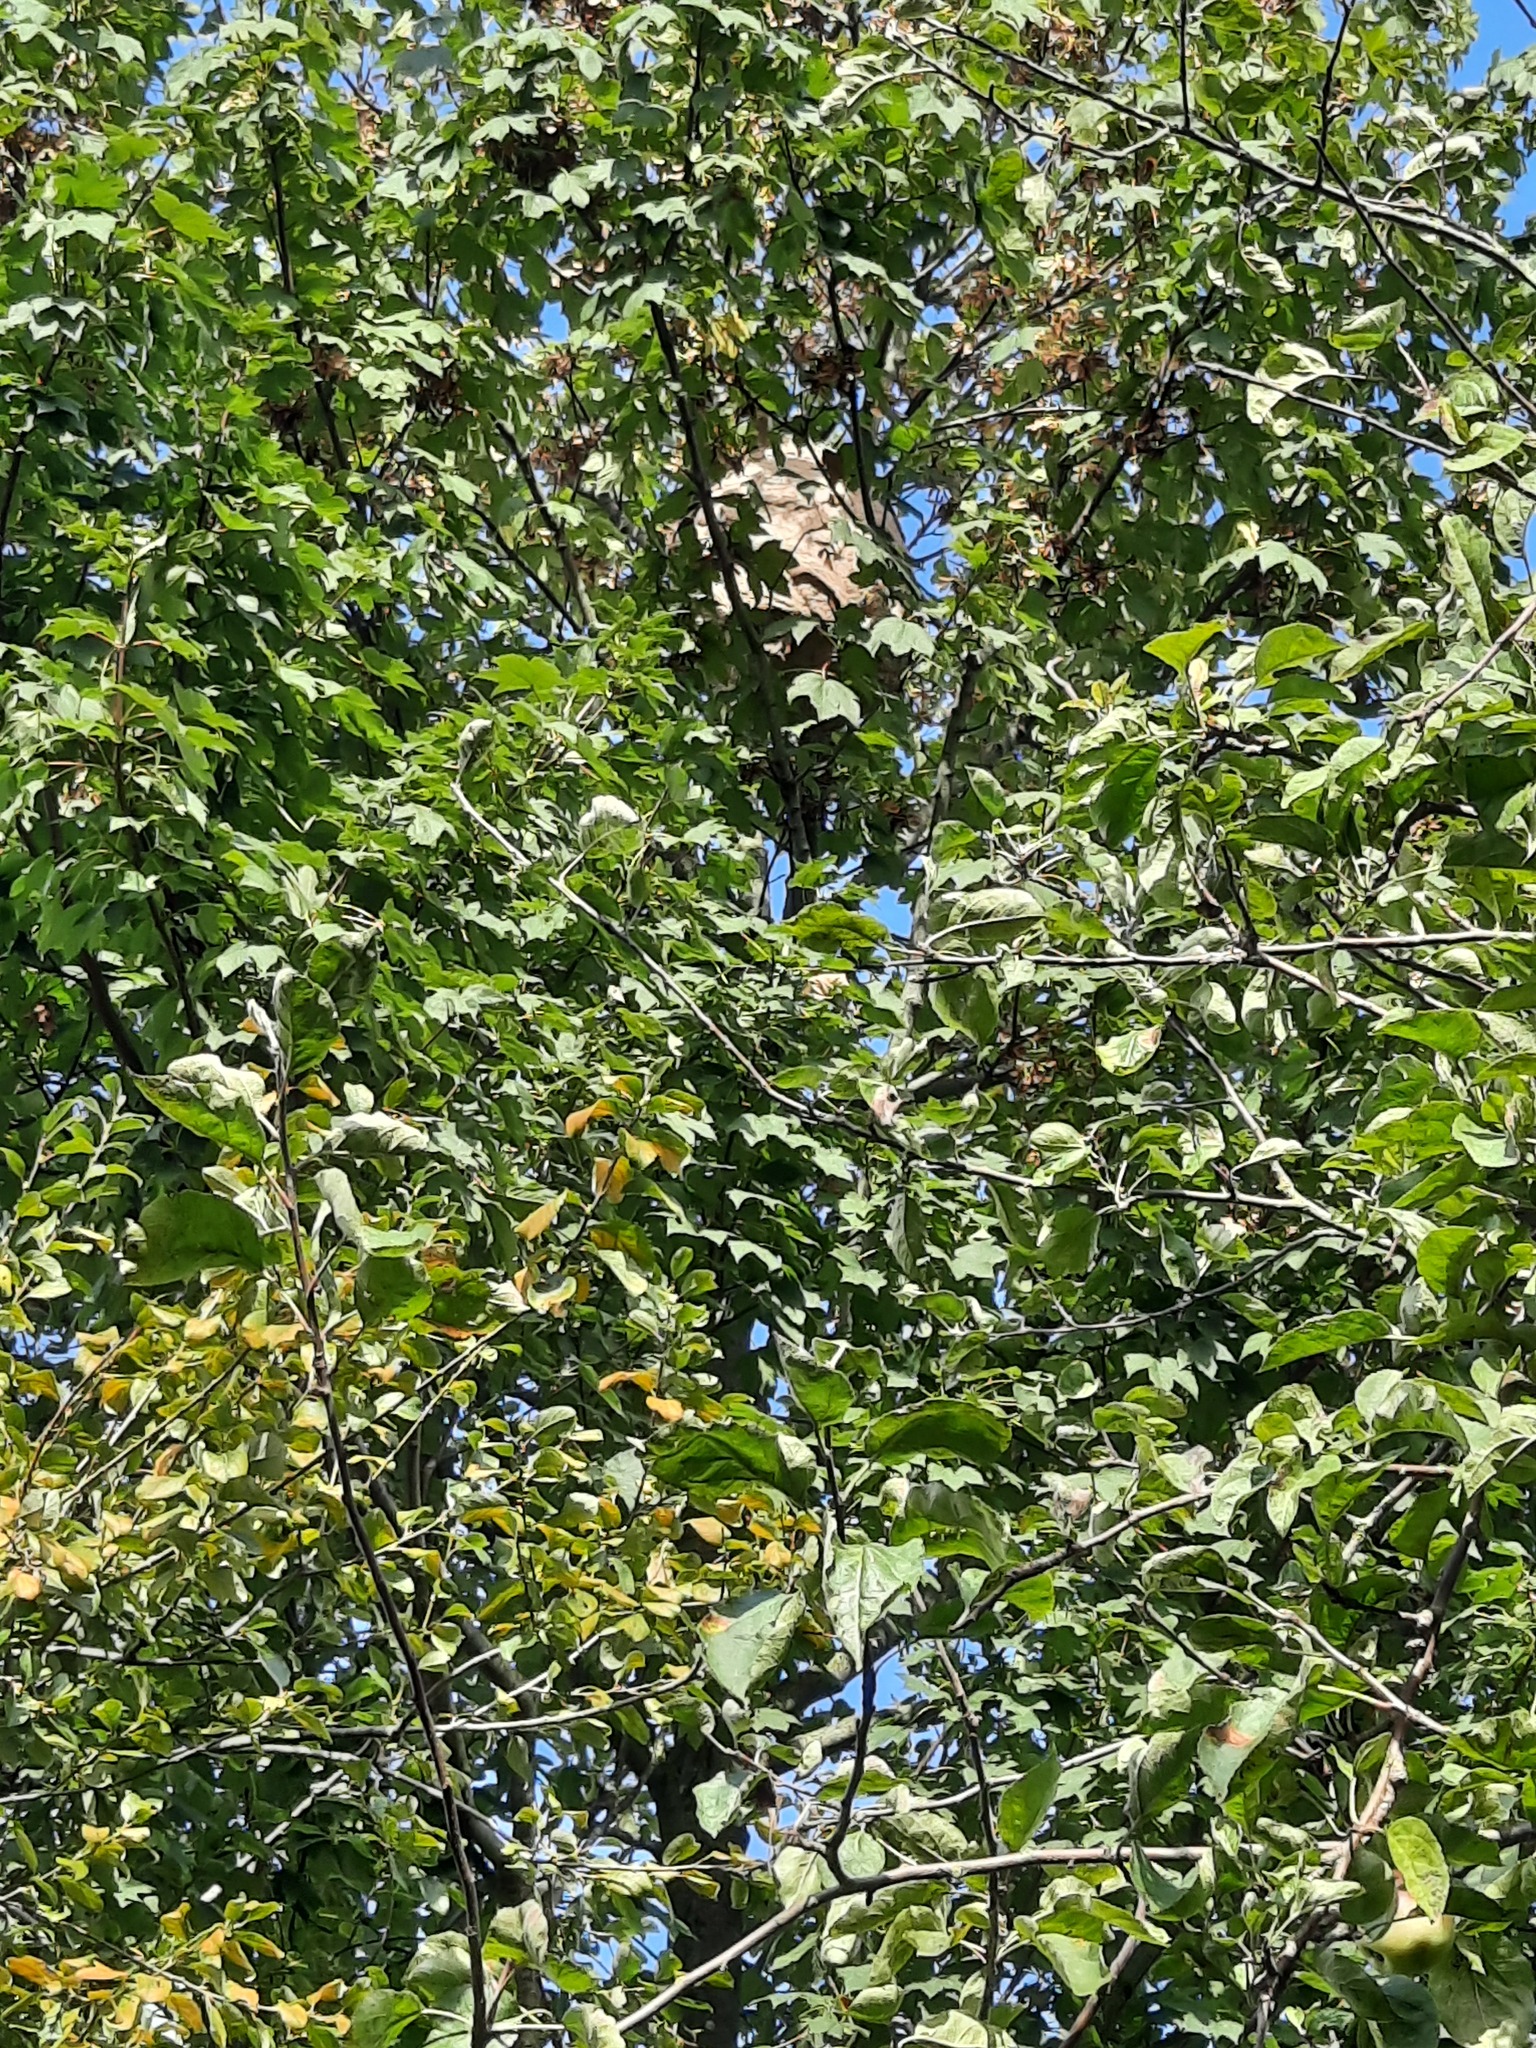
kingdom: Animalia
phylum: Arthropoda
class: Insecta
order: Hymenoptera
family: Vespidae
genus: Vespa
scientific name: Vespa velutina
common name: Asian hornet
